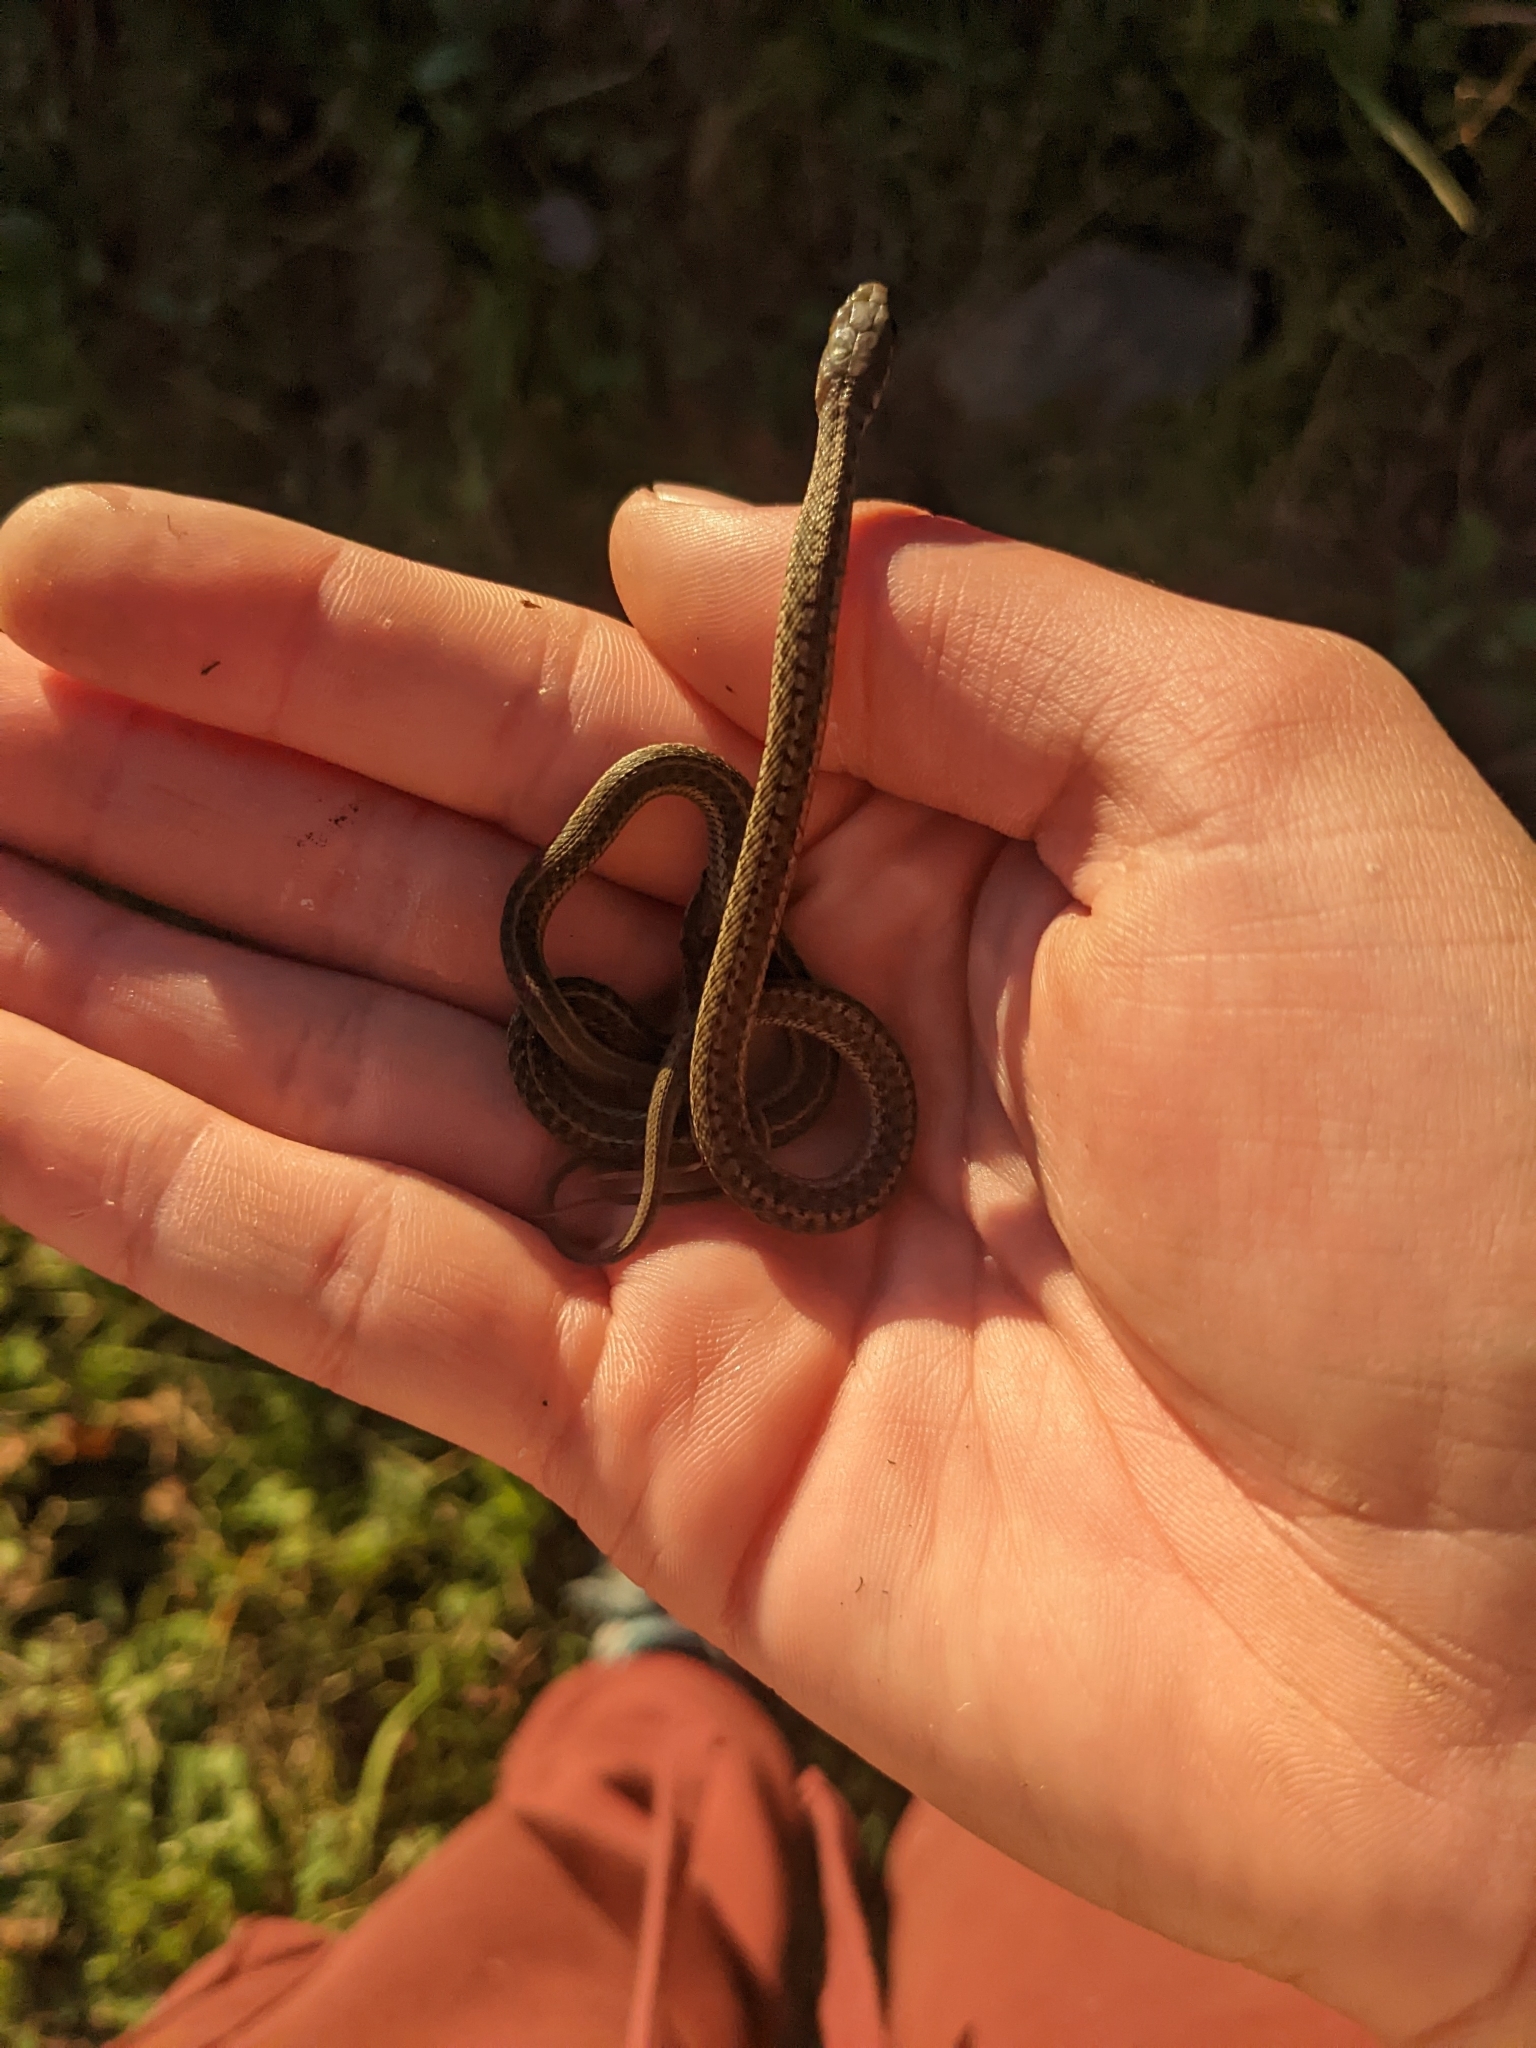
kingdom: Animalia
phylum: Chordata
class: Squamata
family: Colubridae
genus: Thamnophis
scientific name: Thamnophis sirtalis
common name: Common garter snake
